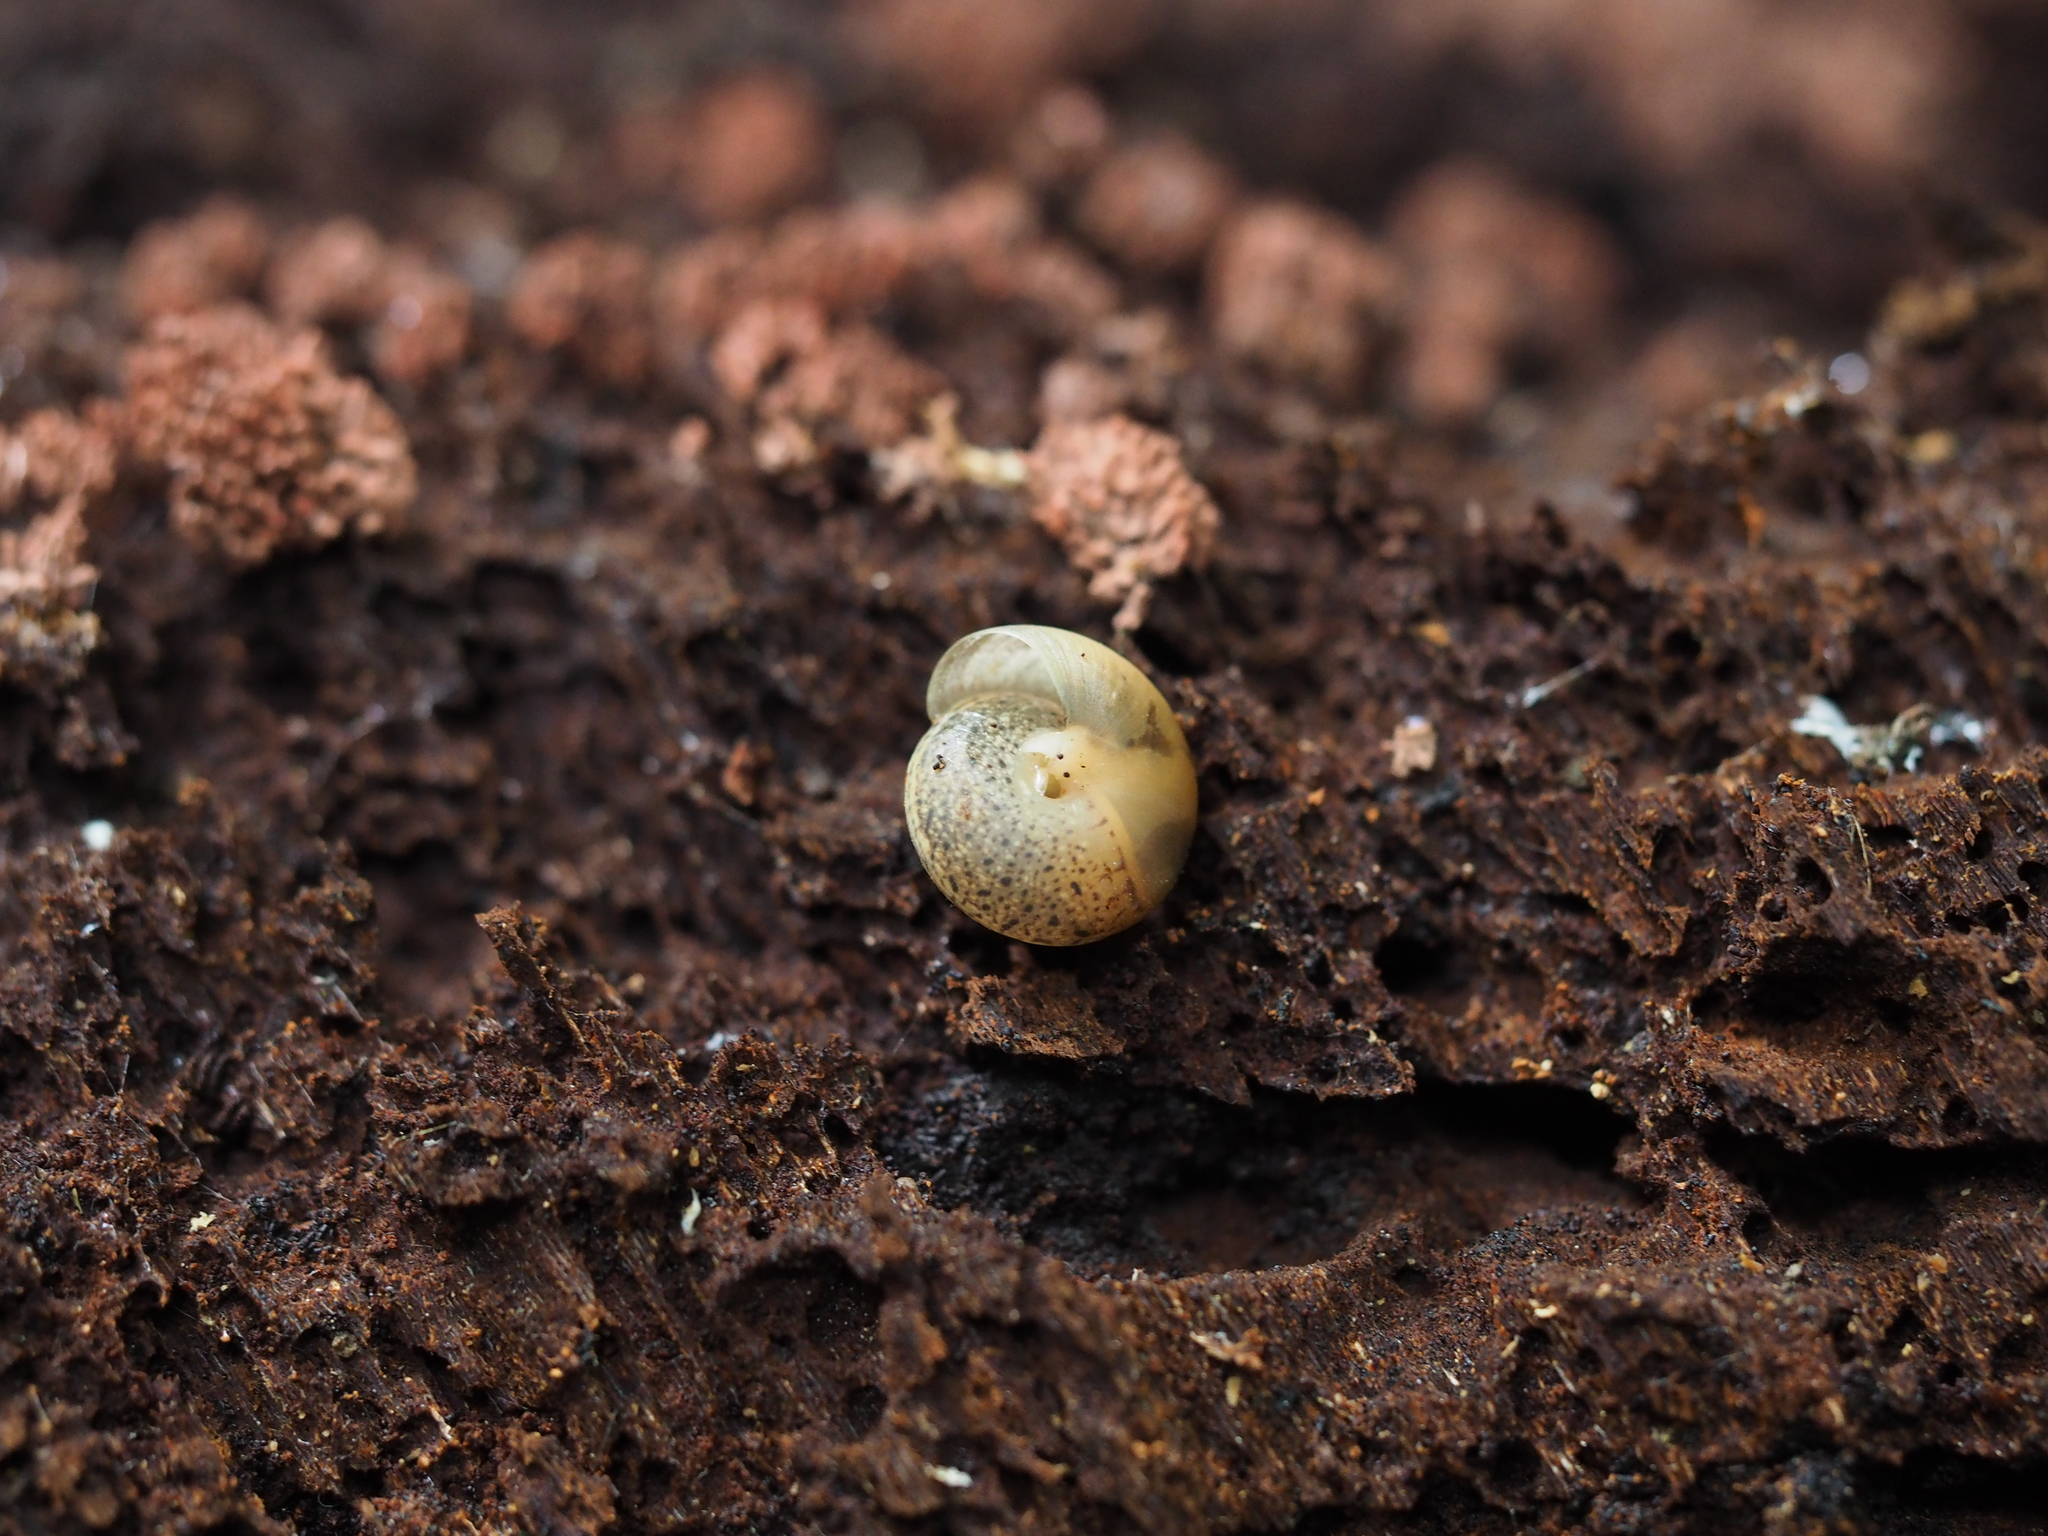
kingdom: Animalia
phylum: Mollusca
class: Gastropoda
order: Stylommatophora
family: Hygromiidae
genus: Hygromia
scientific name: Hygromia cinctella
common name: Girdled snail
